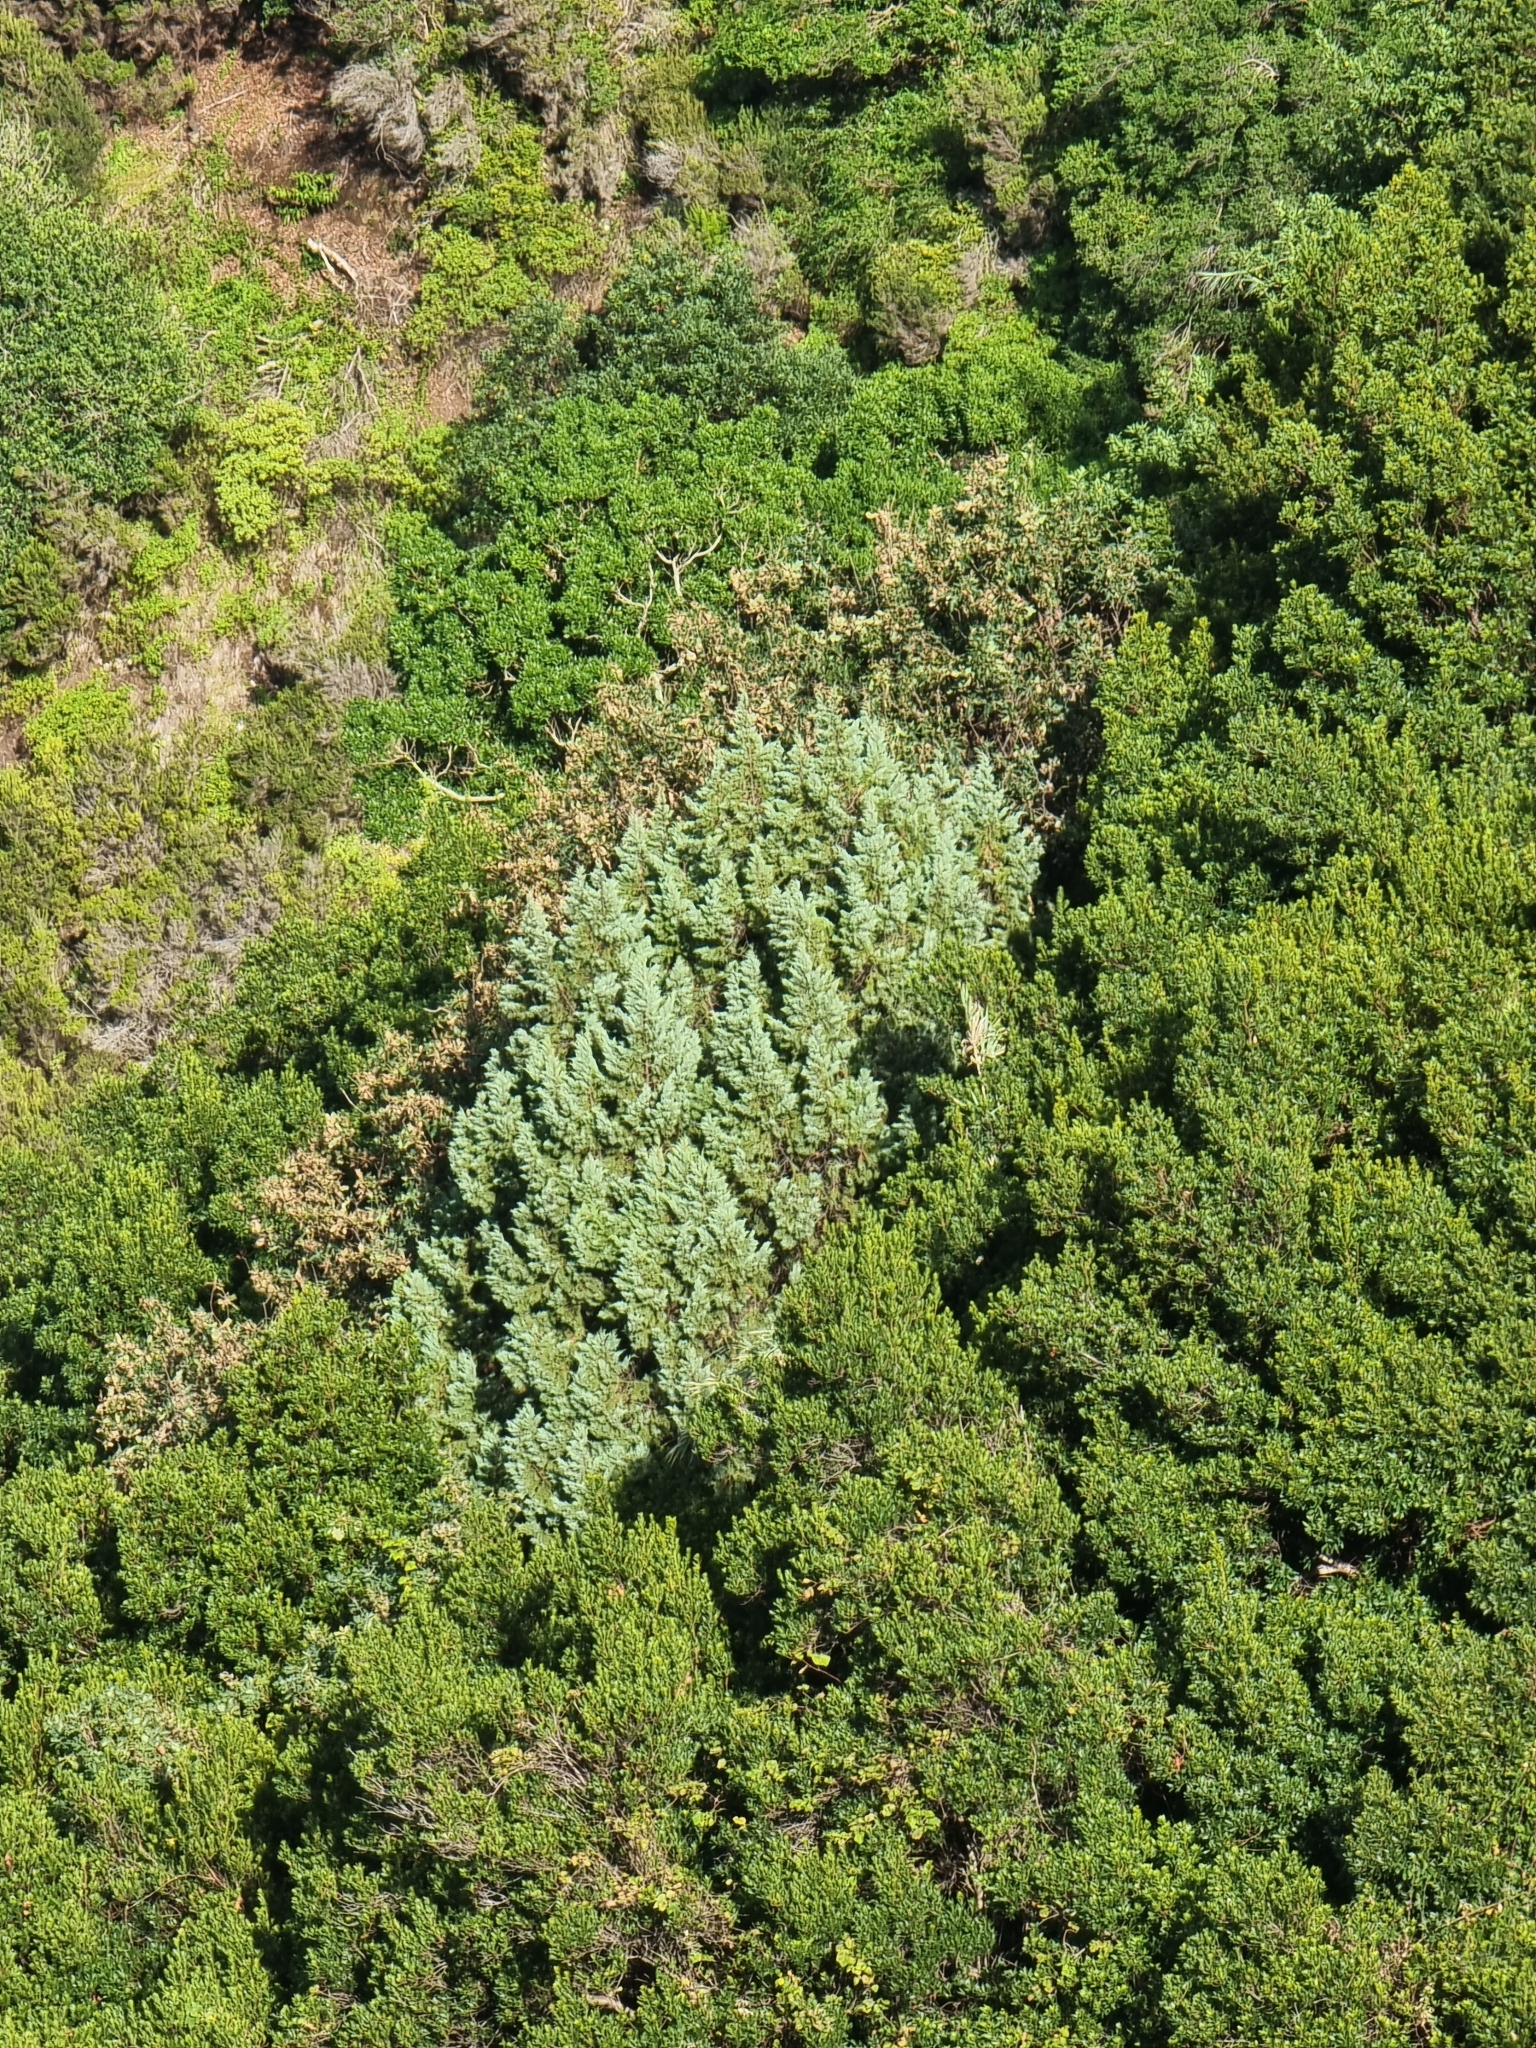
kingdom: Plantae
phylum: Tracheophyta
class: Pinopsida
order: Pinales
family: Cupressaceae
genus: Juniperus
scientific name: Juniperus canariensis
